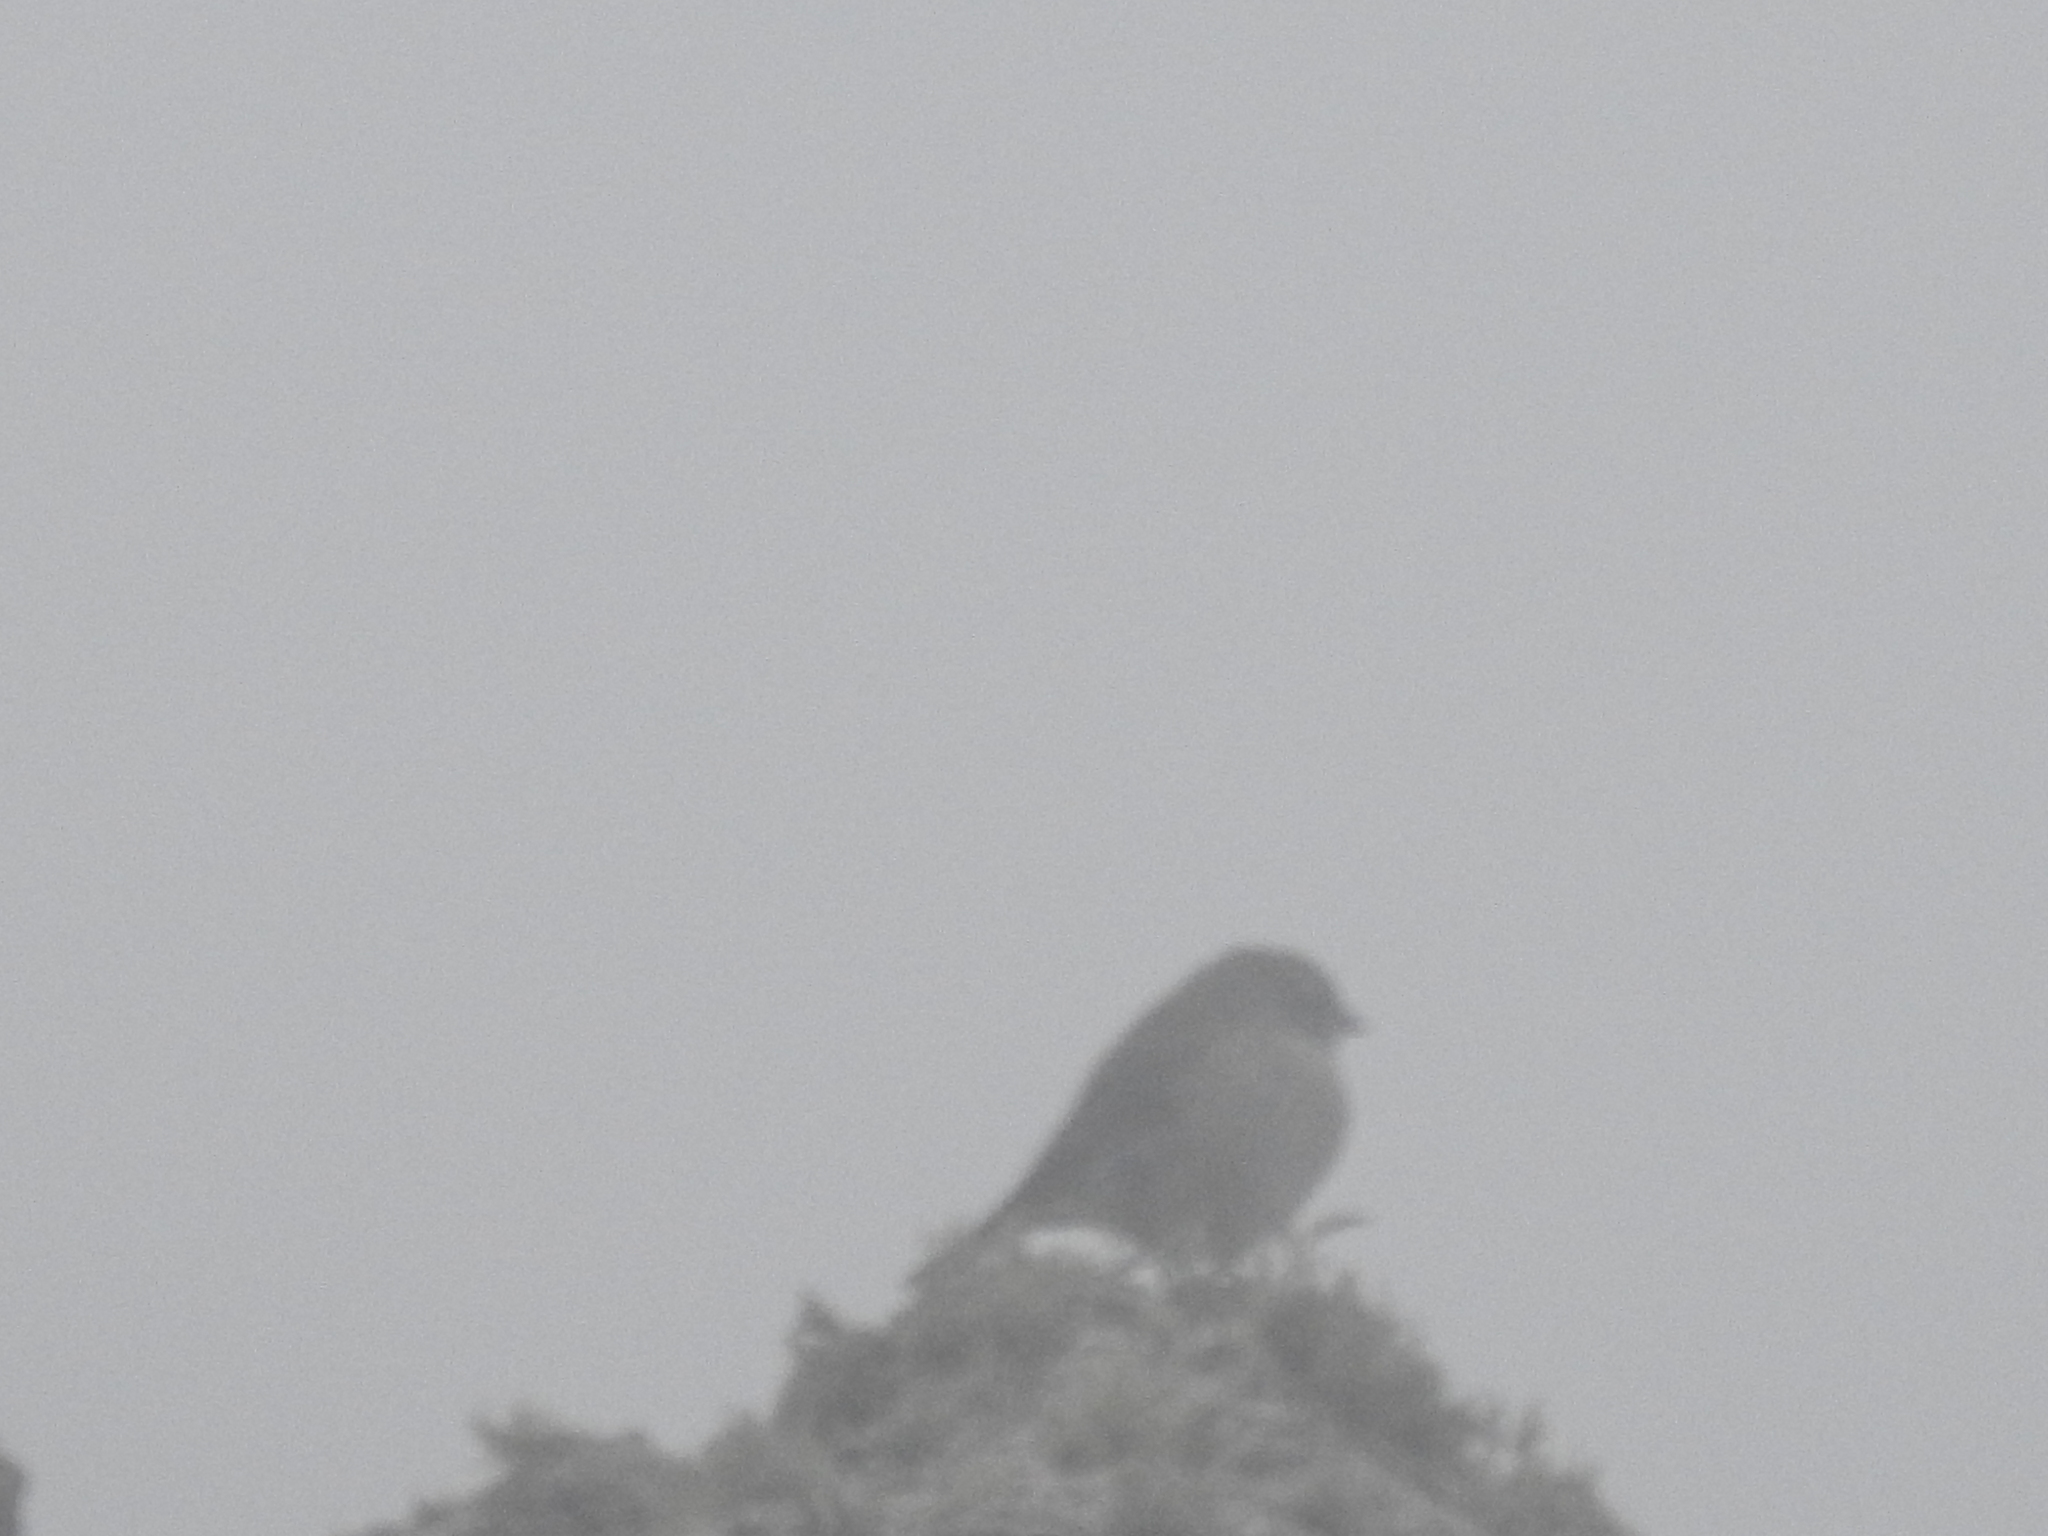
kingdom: Animalia
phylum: Chordata
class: Aves
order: Passeriformes
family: Thraupidae
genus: Geospizopsis
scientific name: Geospizopsis plebejus
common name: Ash-breasted sierra-finch
